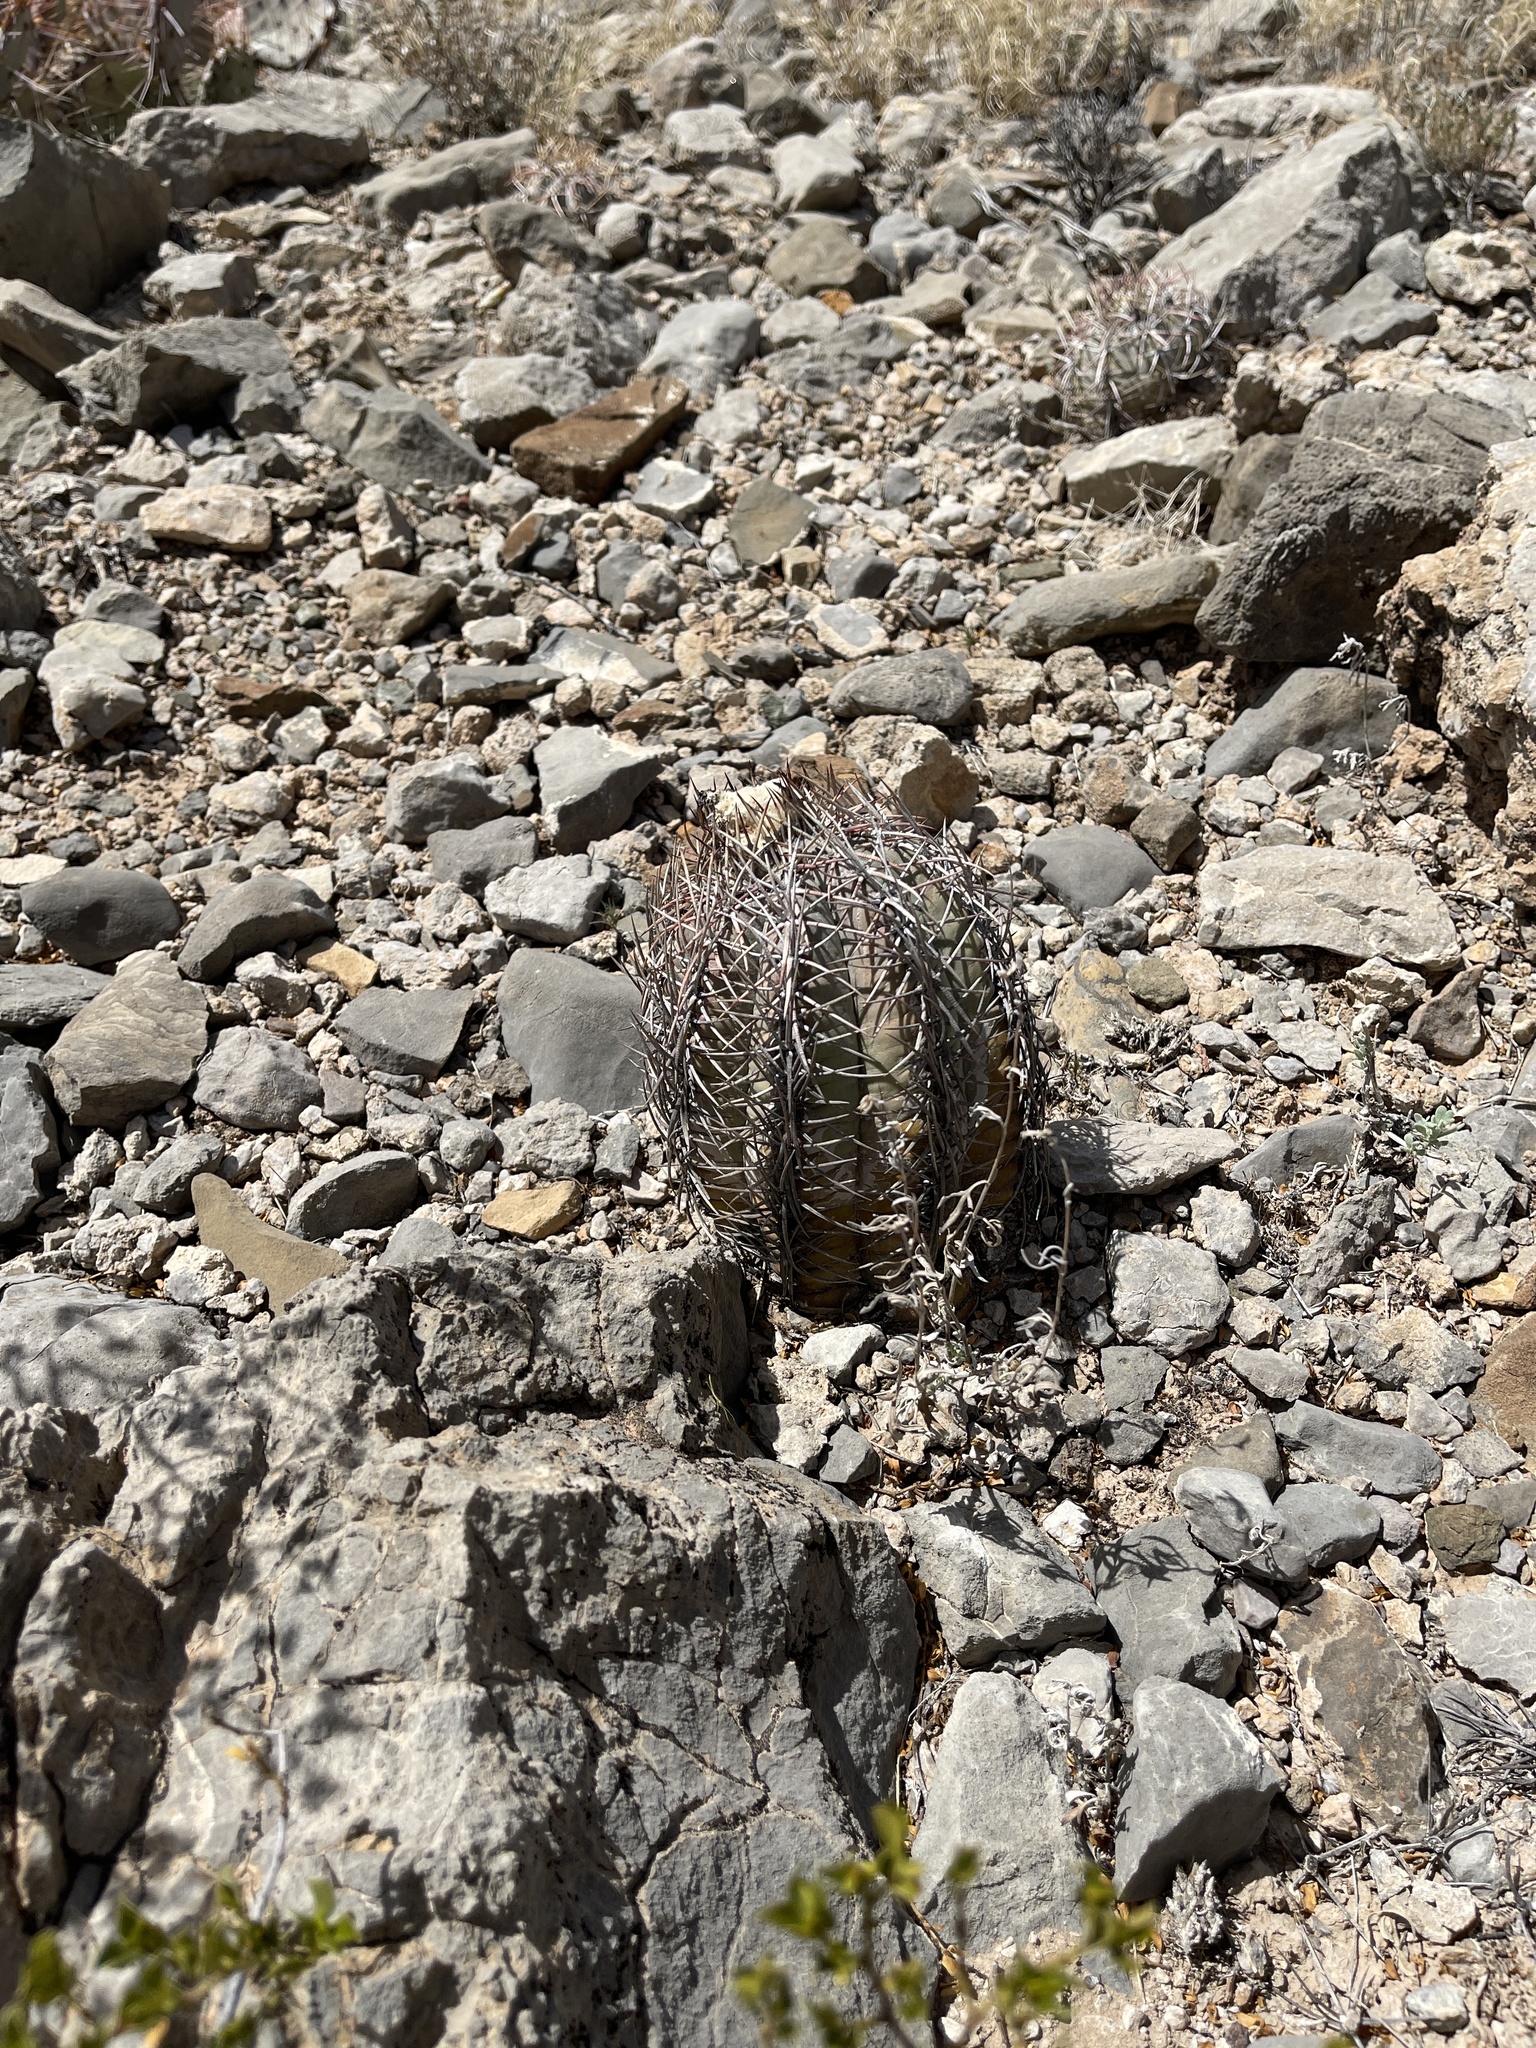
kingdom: Plantae
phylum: Tracheophyta
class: Magnoliopsida
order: Caryophyllales
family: Cactaceae
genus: Echinocactus
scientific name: Echinocactus horizonthalonius
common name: Devilshead
